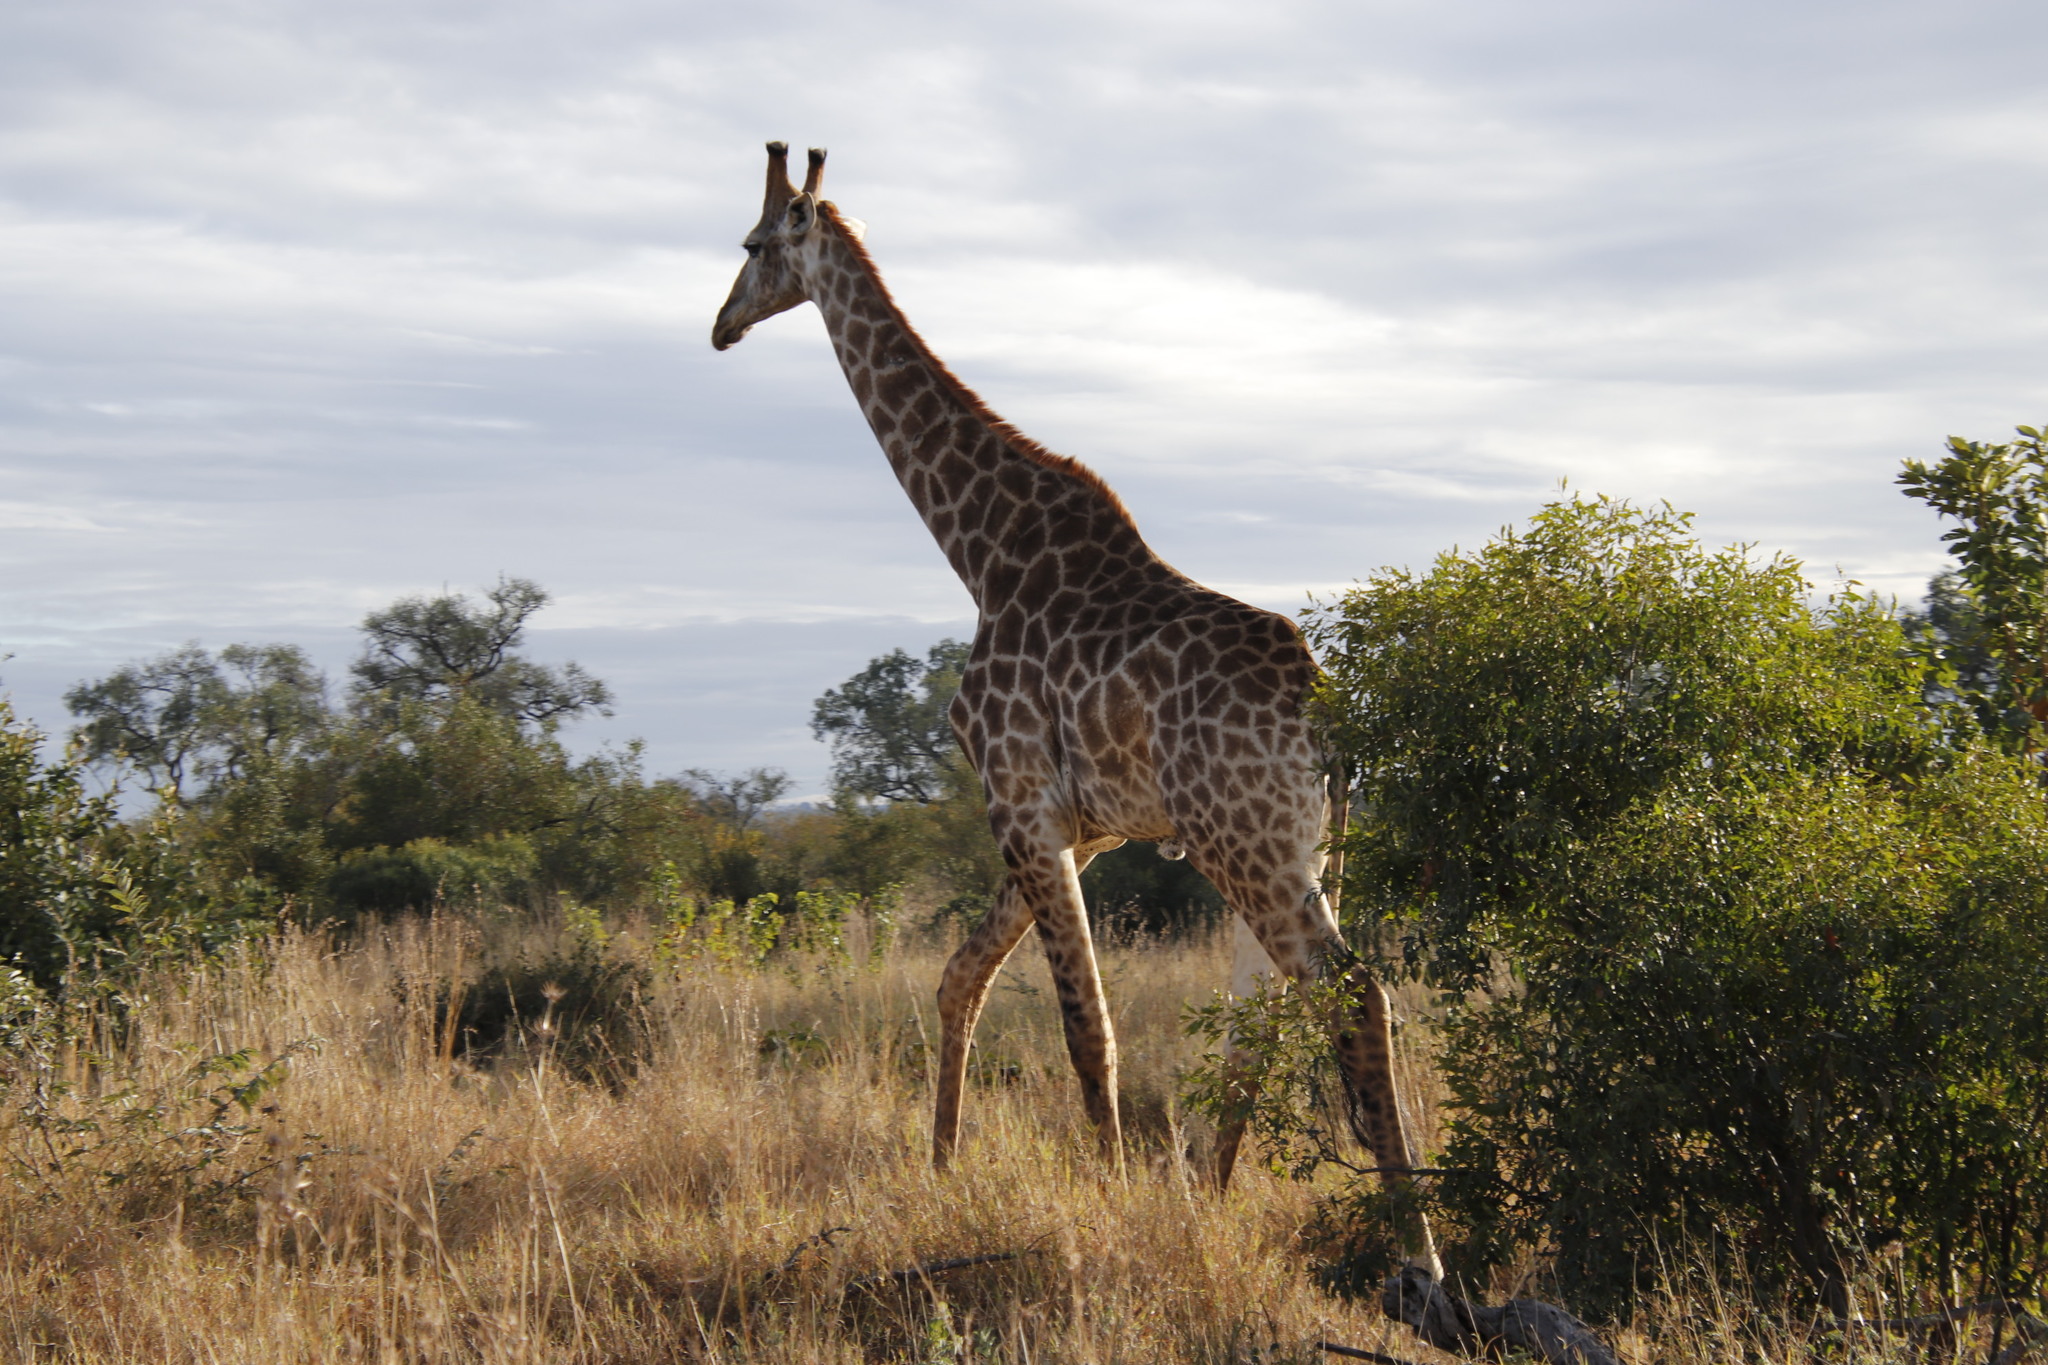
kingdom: Animalia
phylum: Chordata
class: Mammalia
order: Artiodactyla
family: Giraffidae
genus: Giraffa
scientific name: Giraffa giraffa
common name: Southern giraffe
